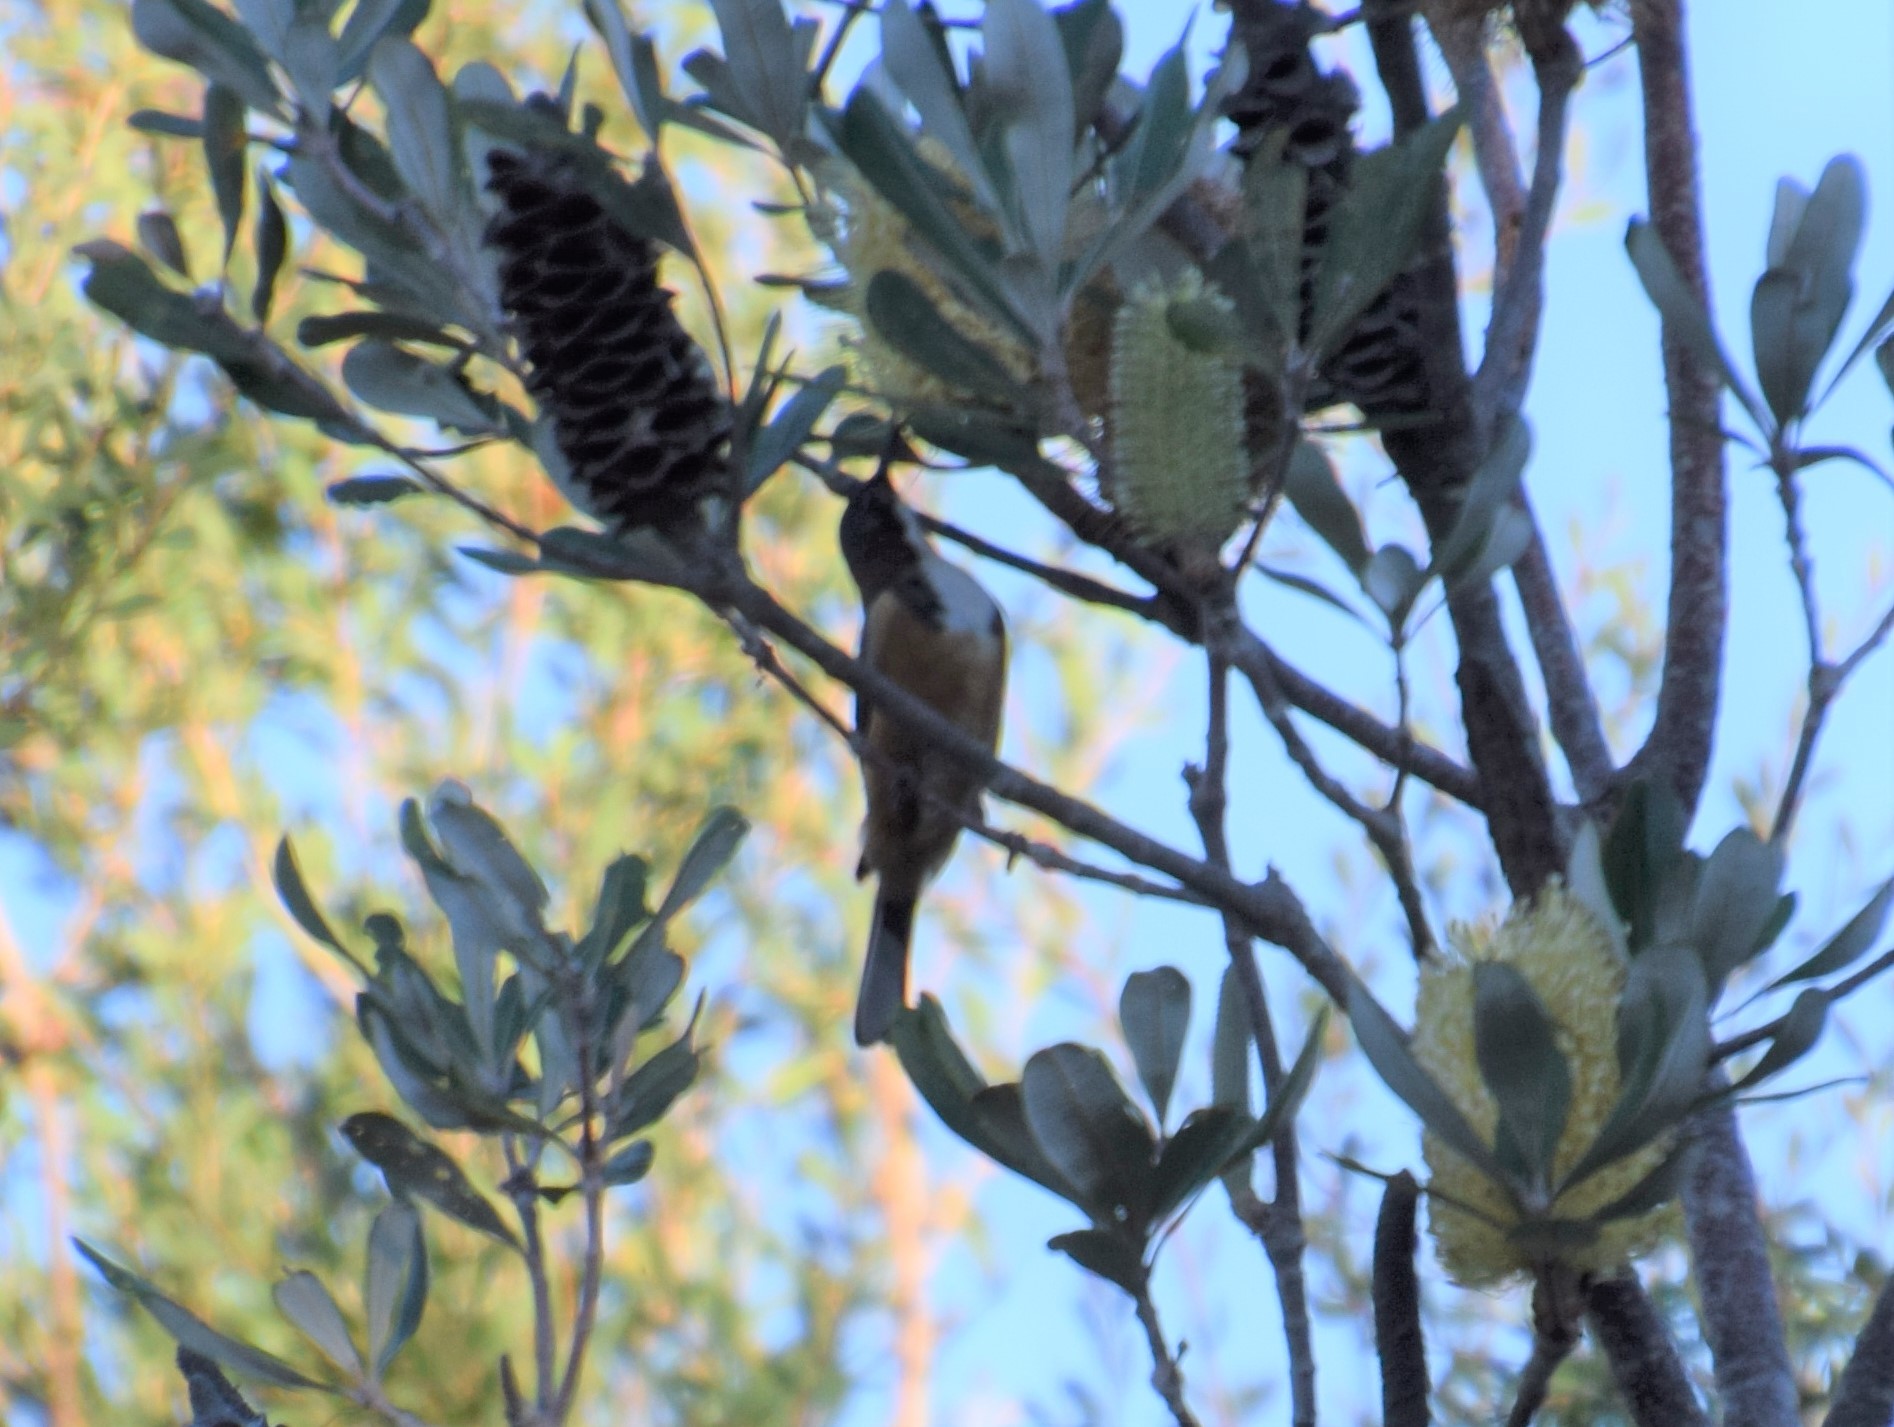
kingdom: Animalia
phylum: Chordata
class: Aves
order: Passeriformes
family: Meliphagidae
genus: Acanthorhynchus
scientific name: Acanthorhynchus tenuirostris
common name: Eastern spinebill
